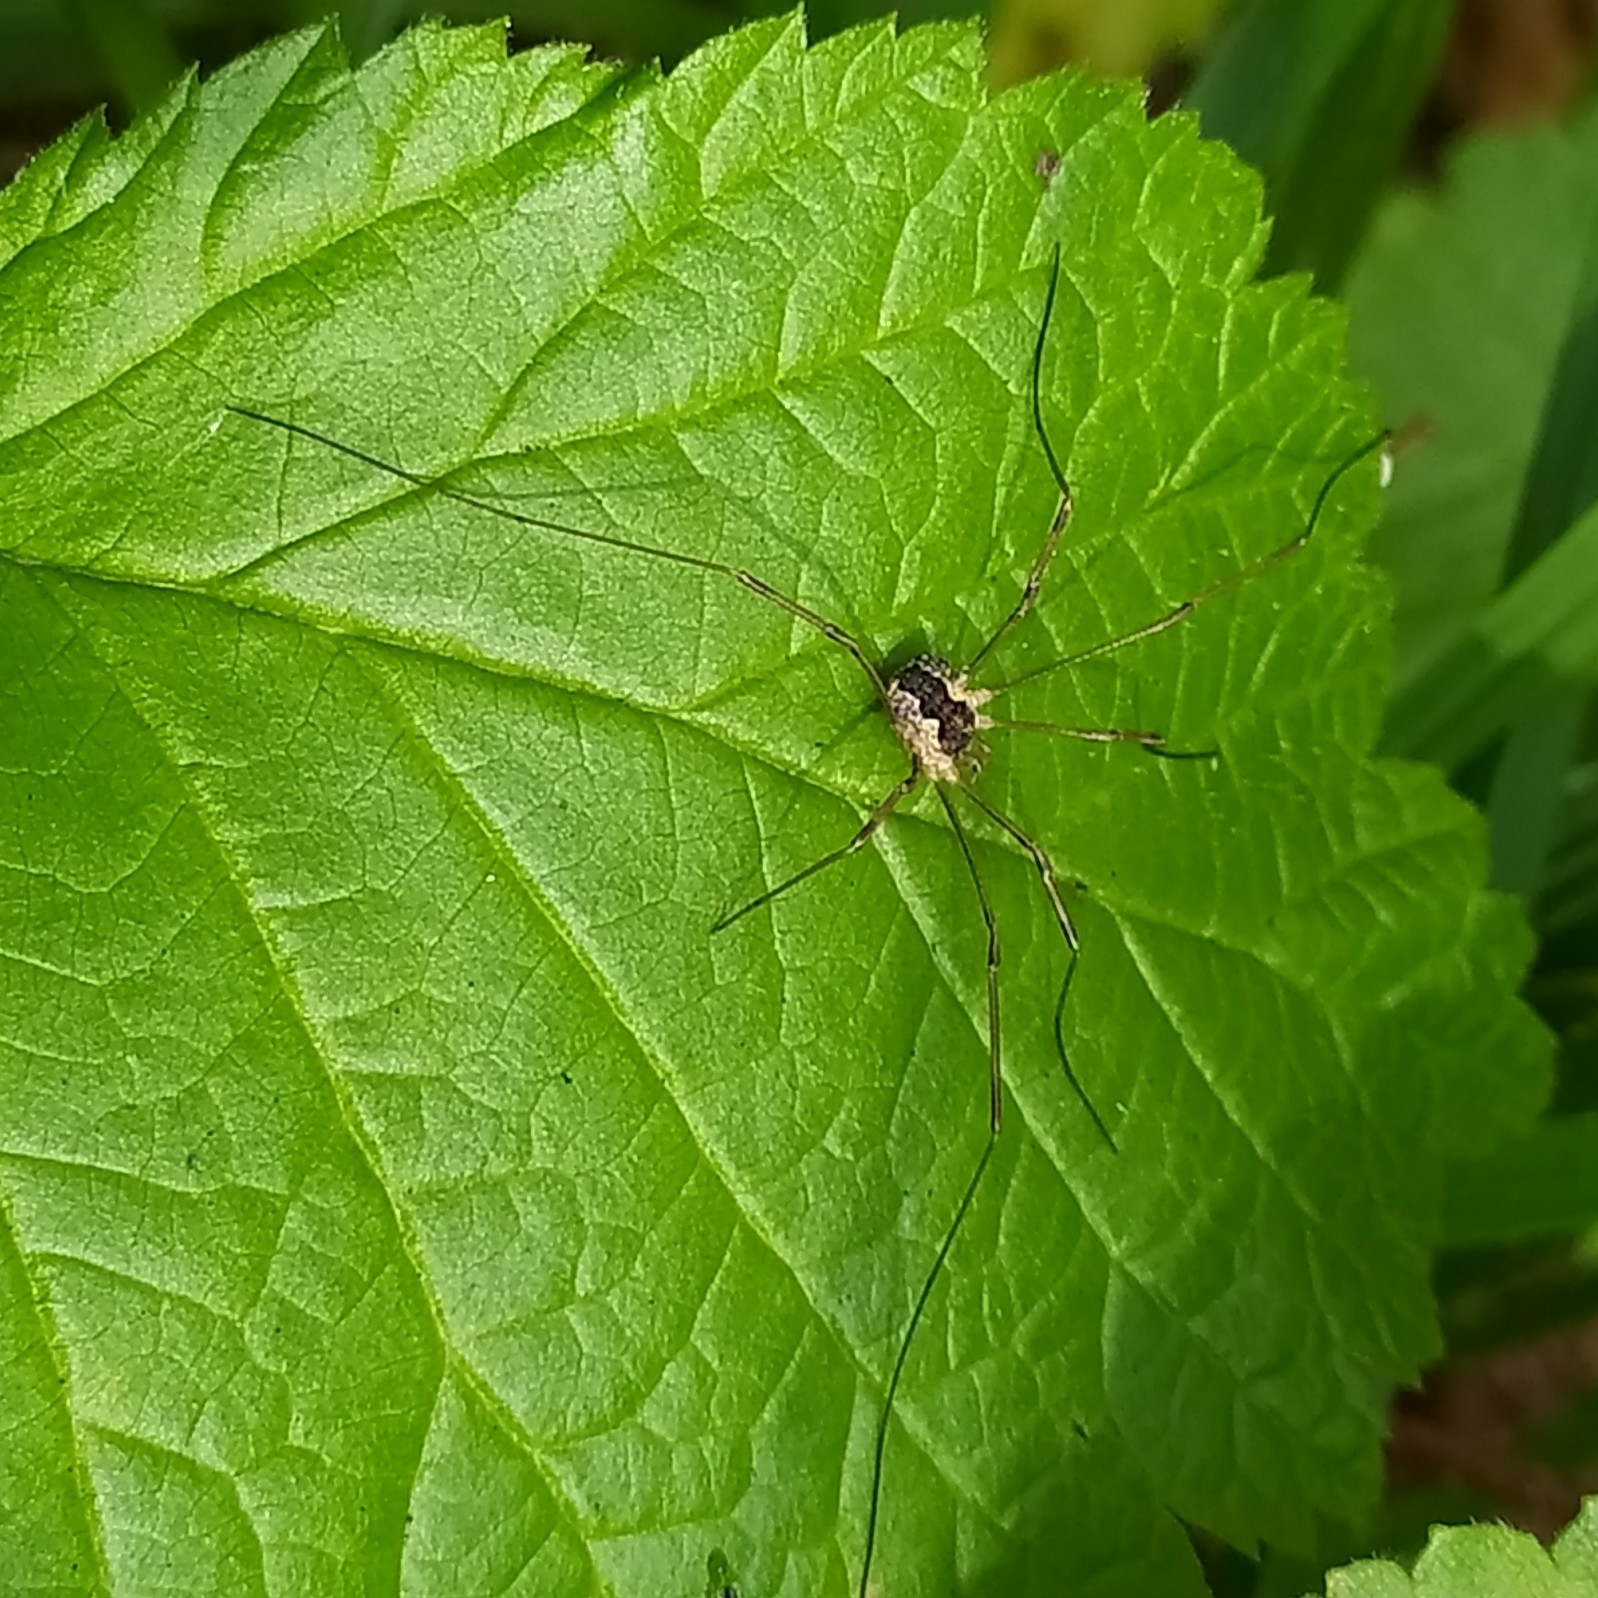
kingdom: Animalia
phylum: Arthropoda
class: Arachnida
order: Opiliones
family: Phalangiidae
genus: Mitopus
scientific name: Mitopus morio
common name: Saddleback harvestman
